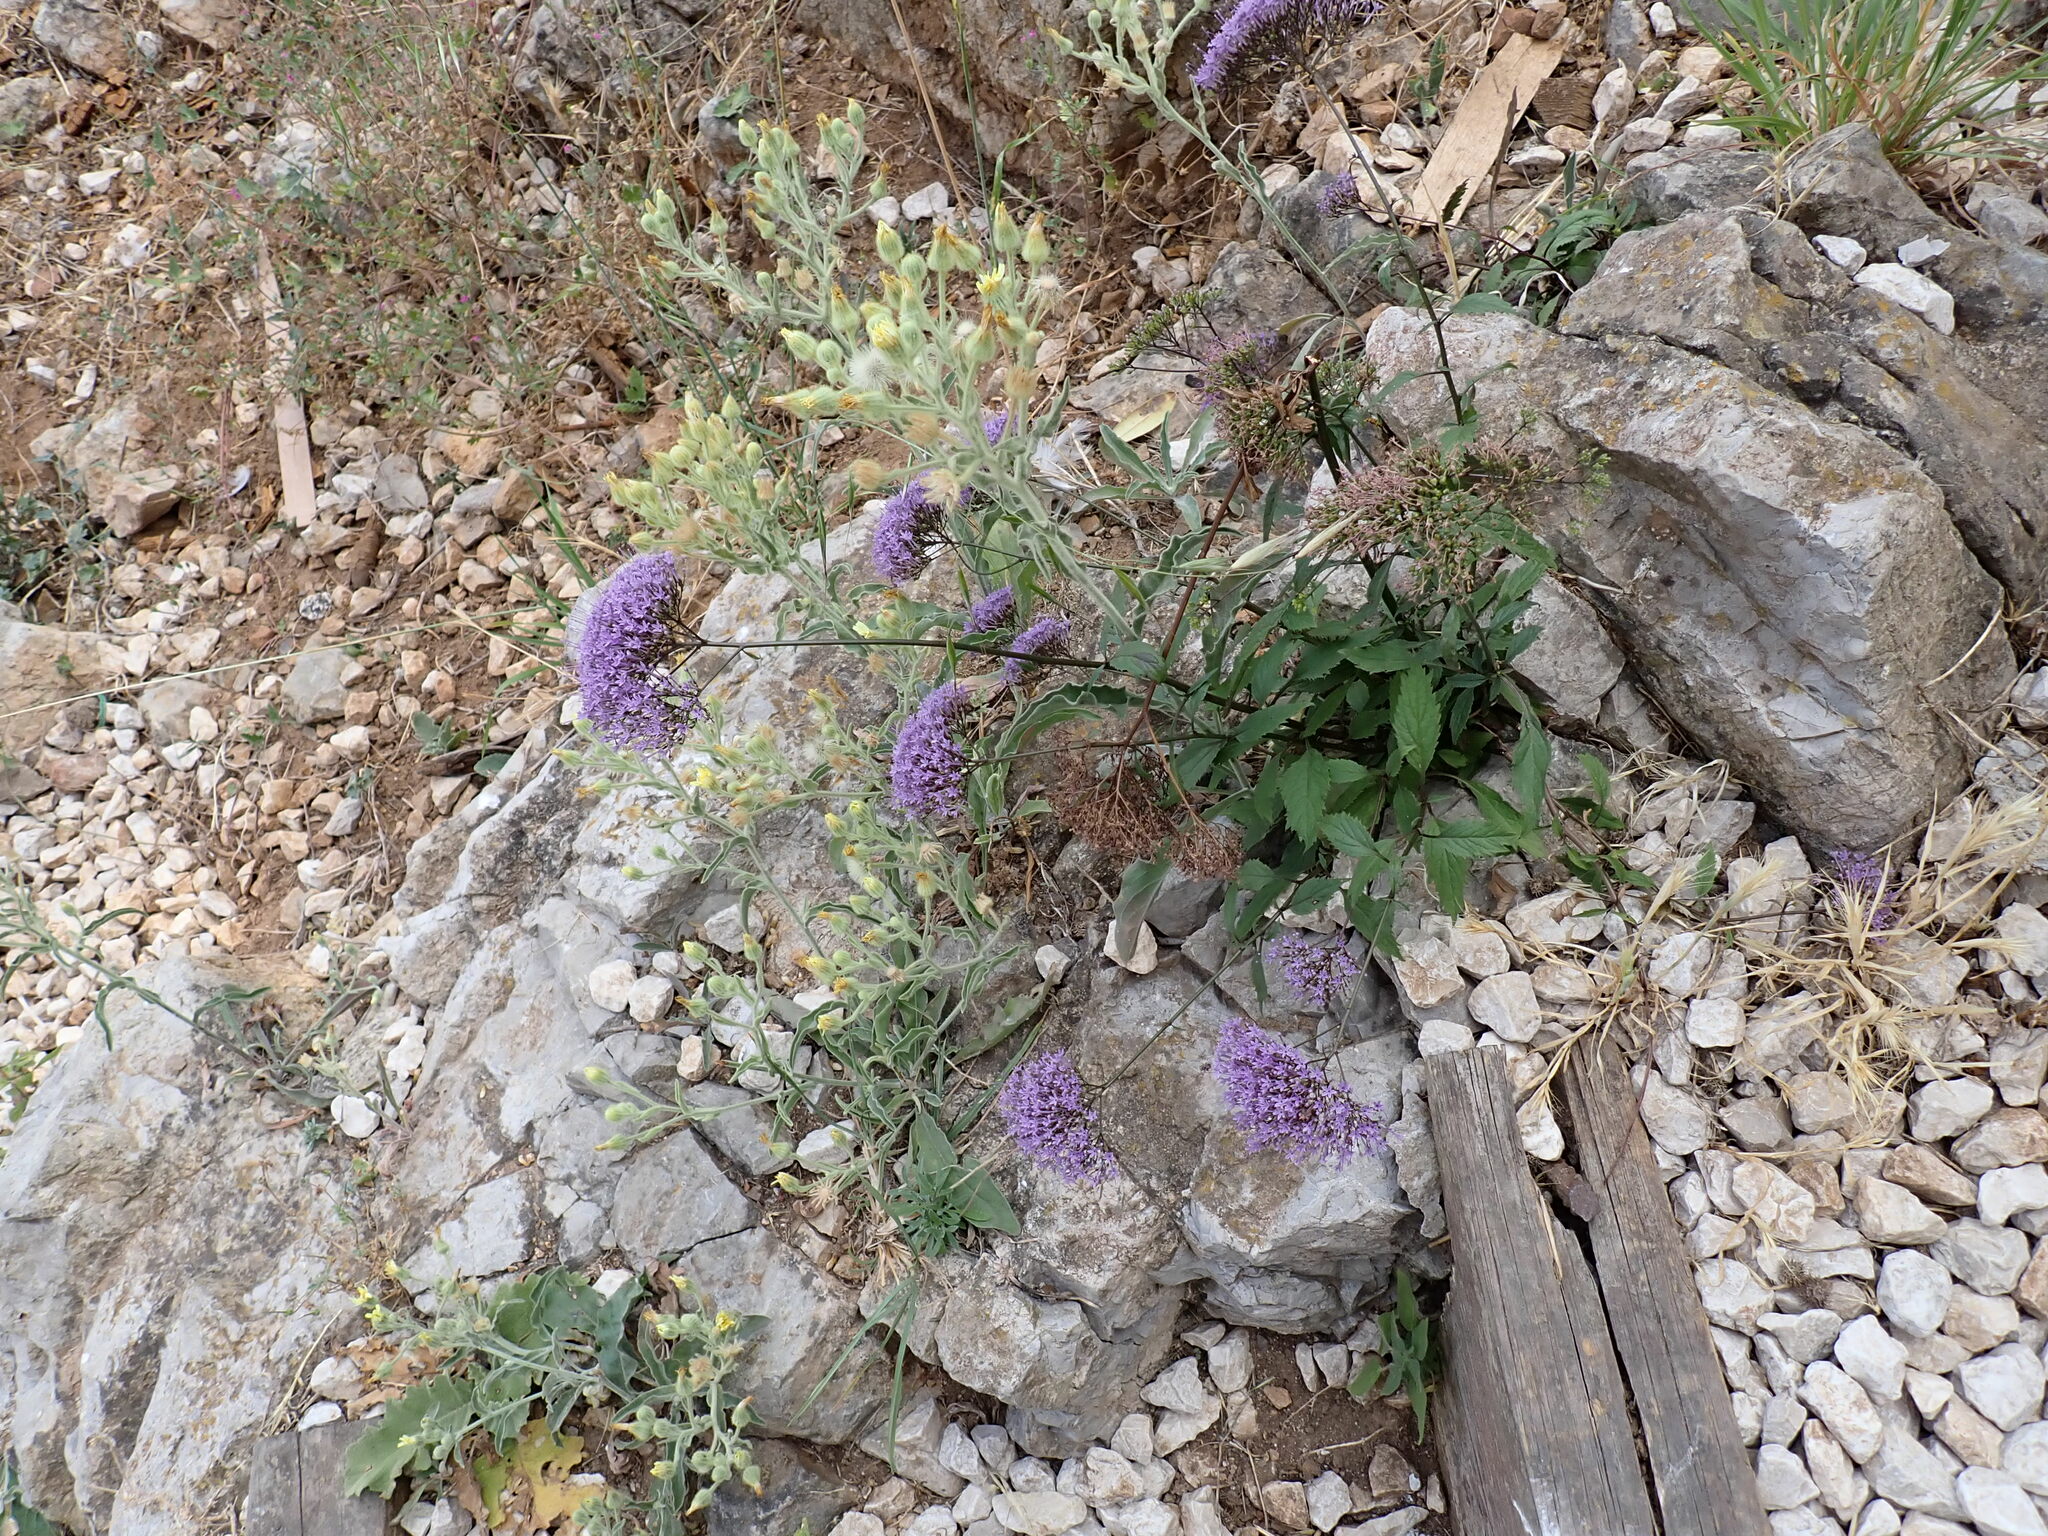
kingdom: Plantae
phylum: Tracheophyta
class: Magnoliopsida
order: Asterales
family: Campanulaceae
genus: Trachelium
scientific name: Trachelium caeruleum
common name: Throatwort
